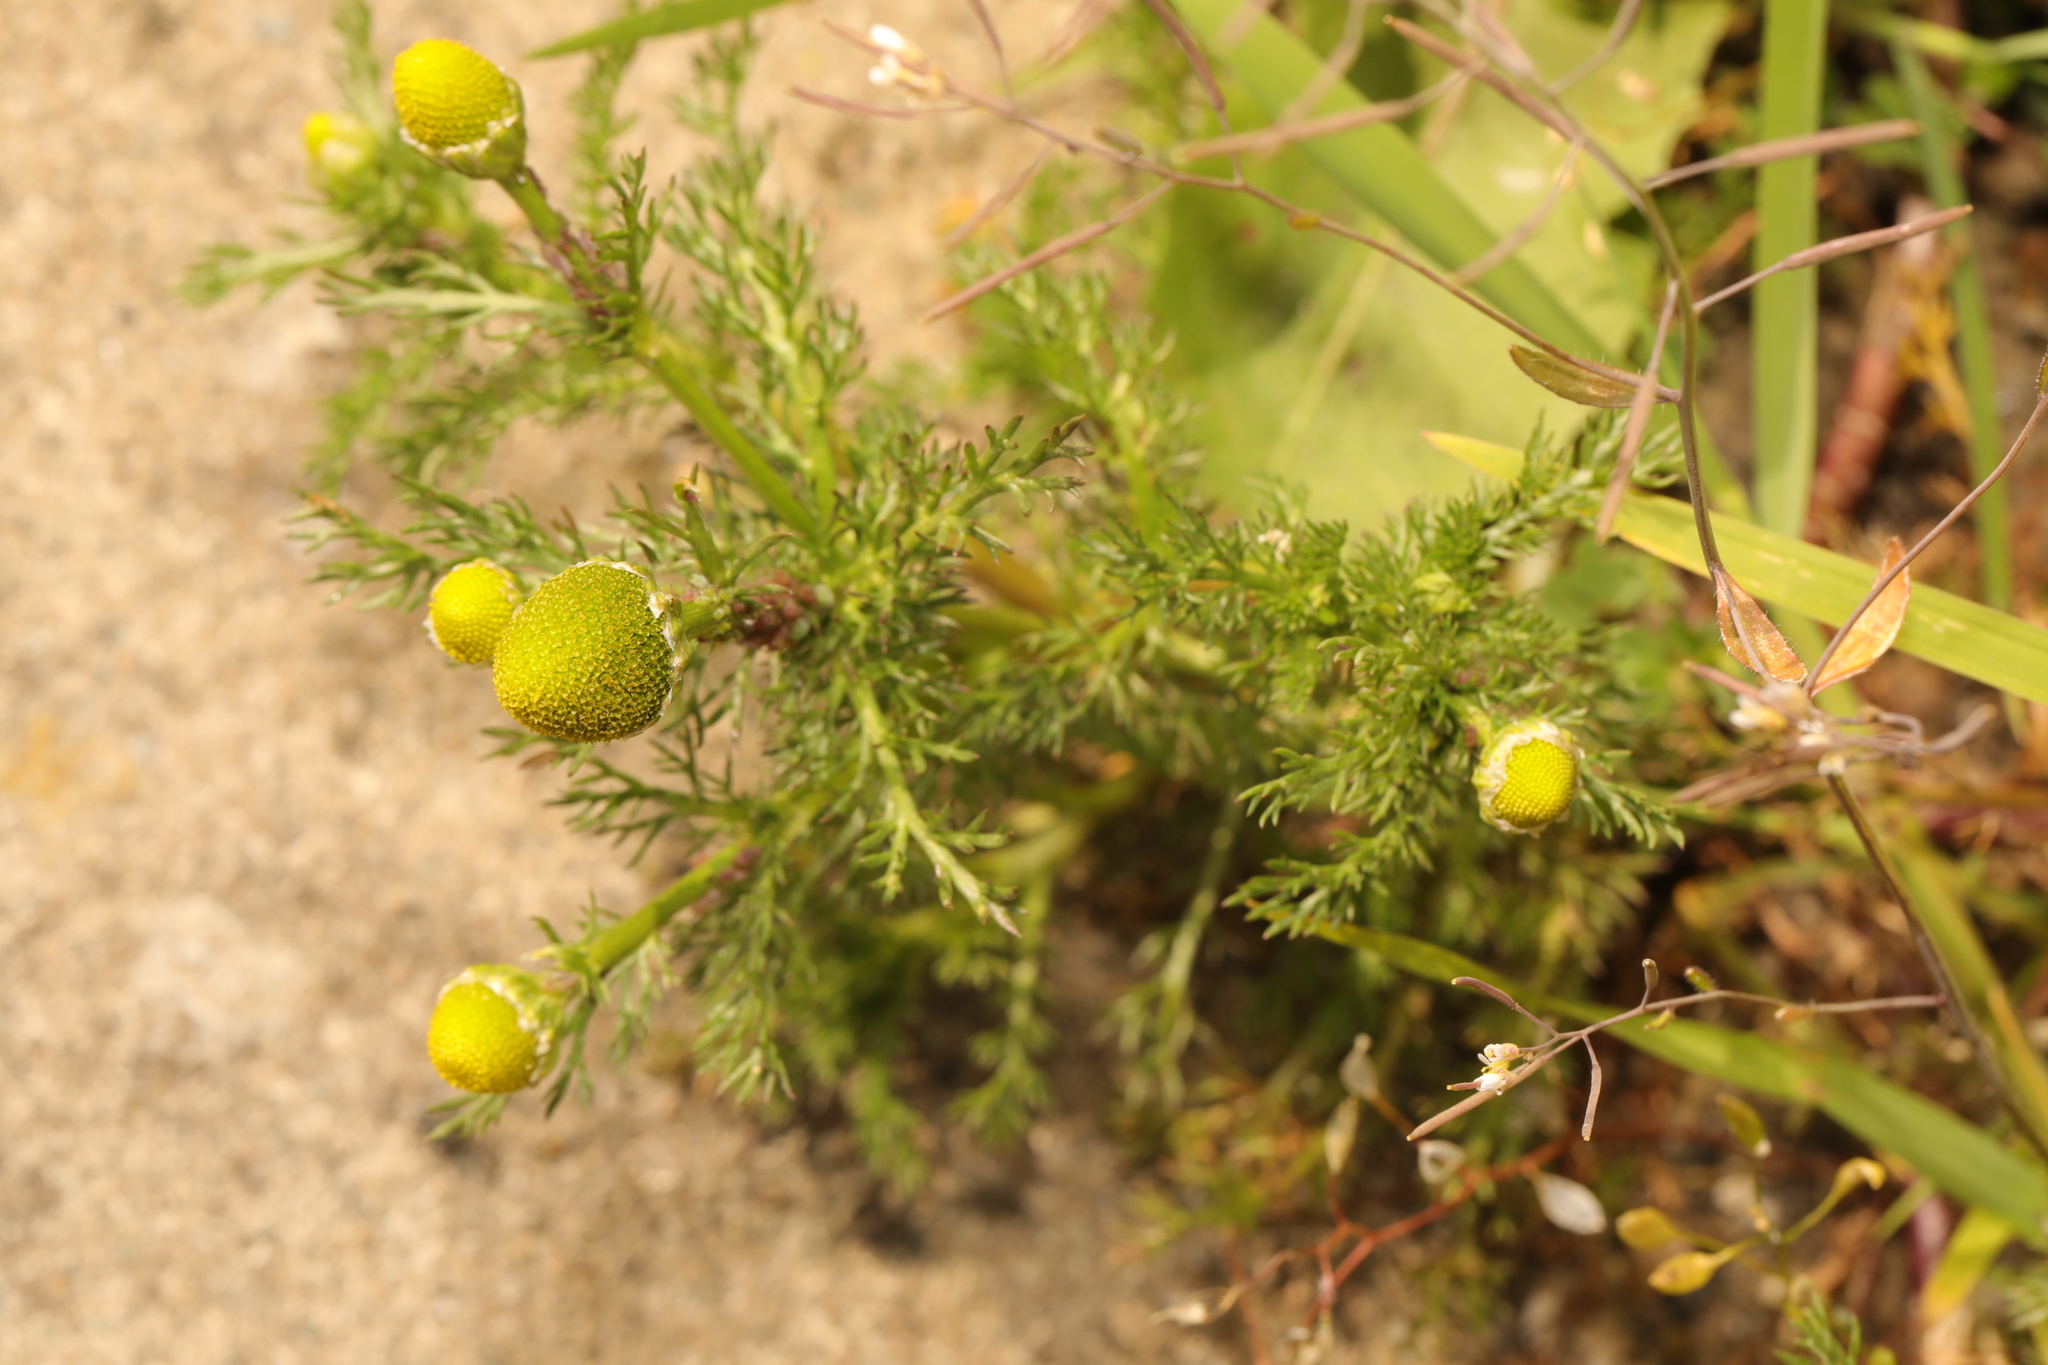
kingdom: Plantae
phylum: Tracheophyta
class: Magnoliopsida
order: Asterales
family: Asteraceae
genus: Matricaria
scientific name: Matricaria discoidea
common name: Disc mayweed
